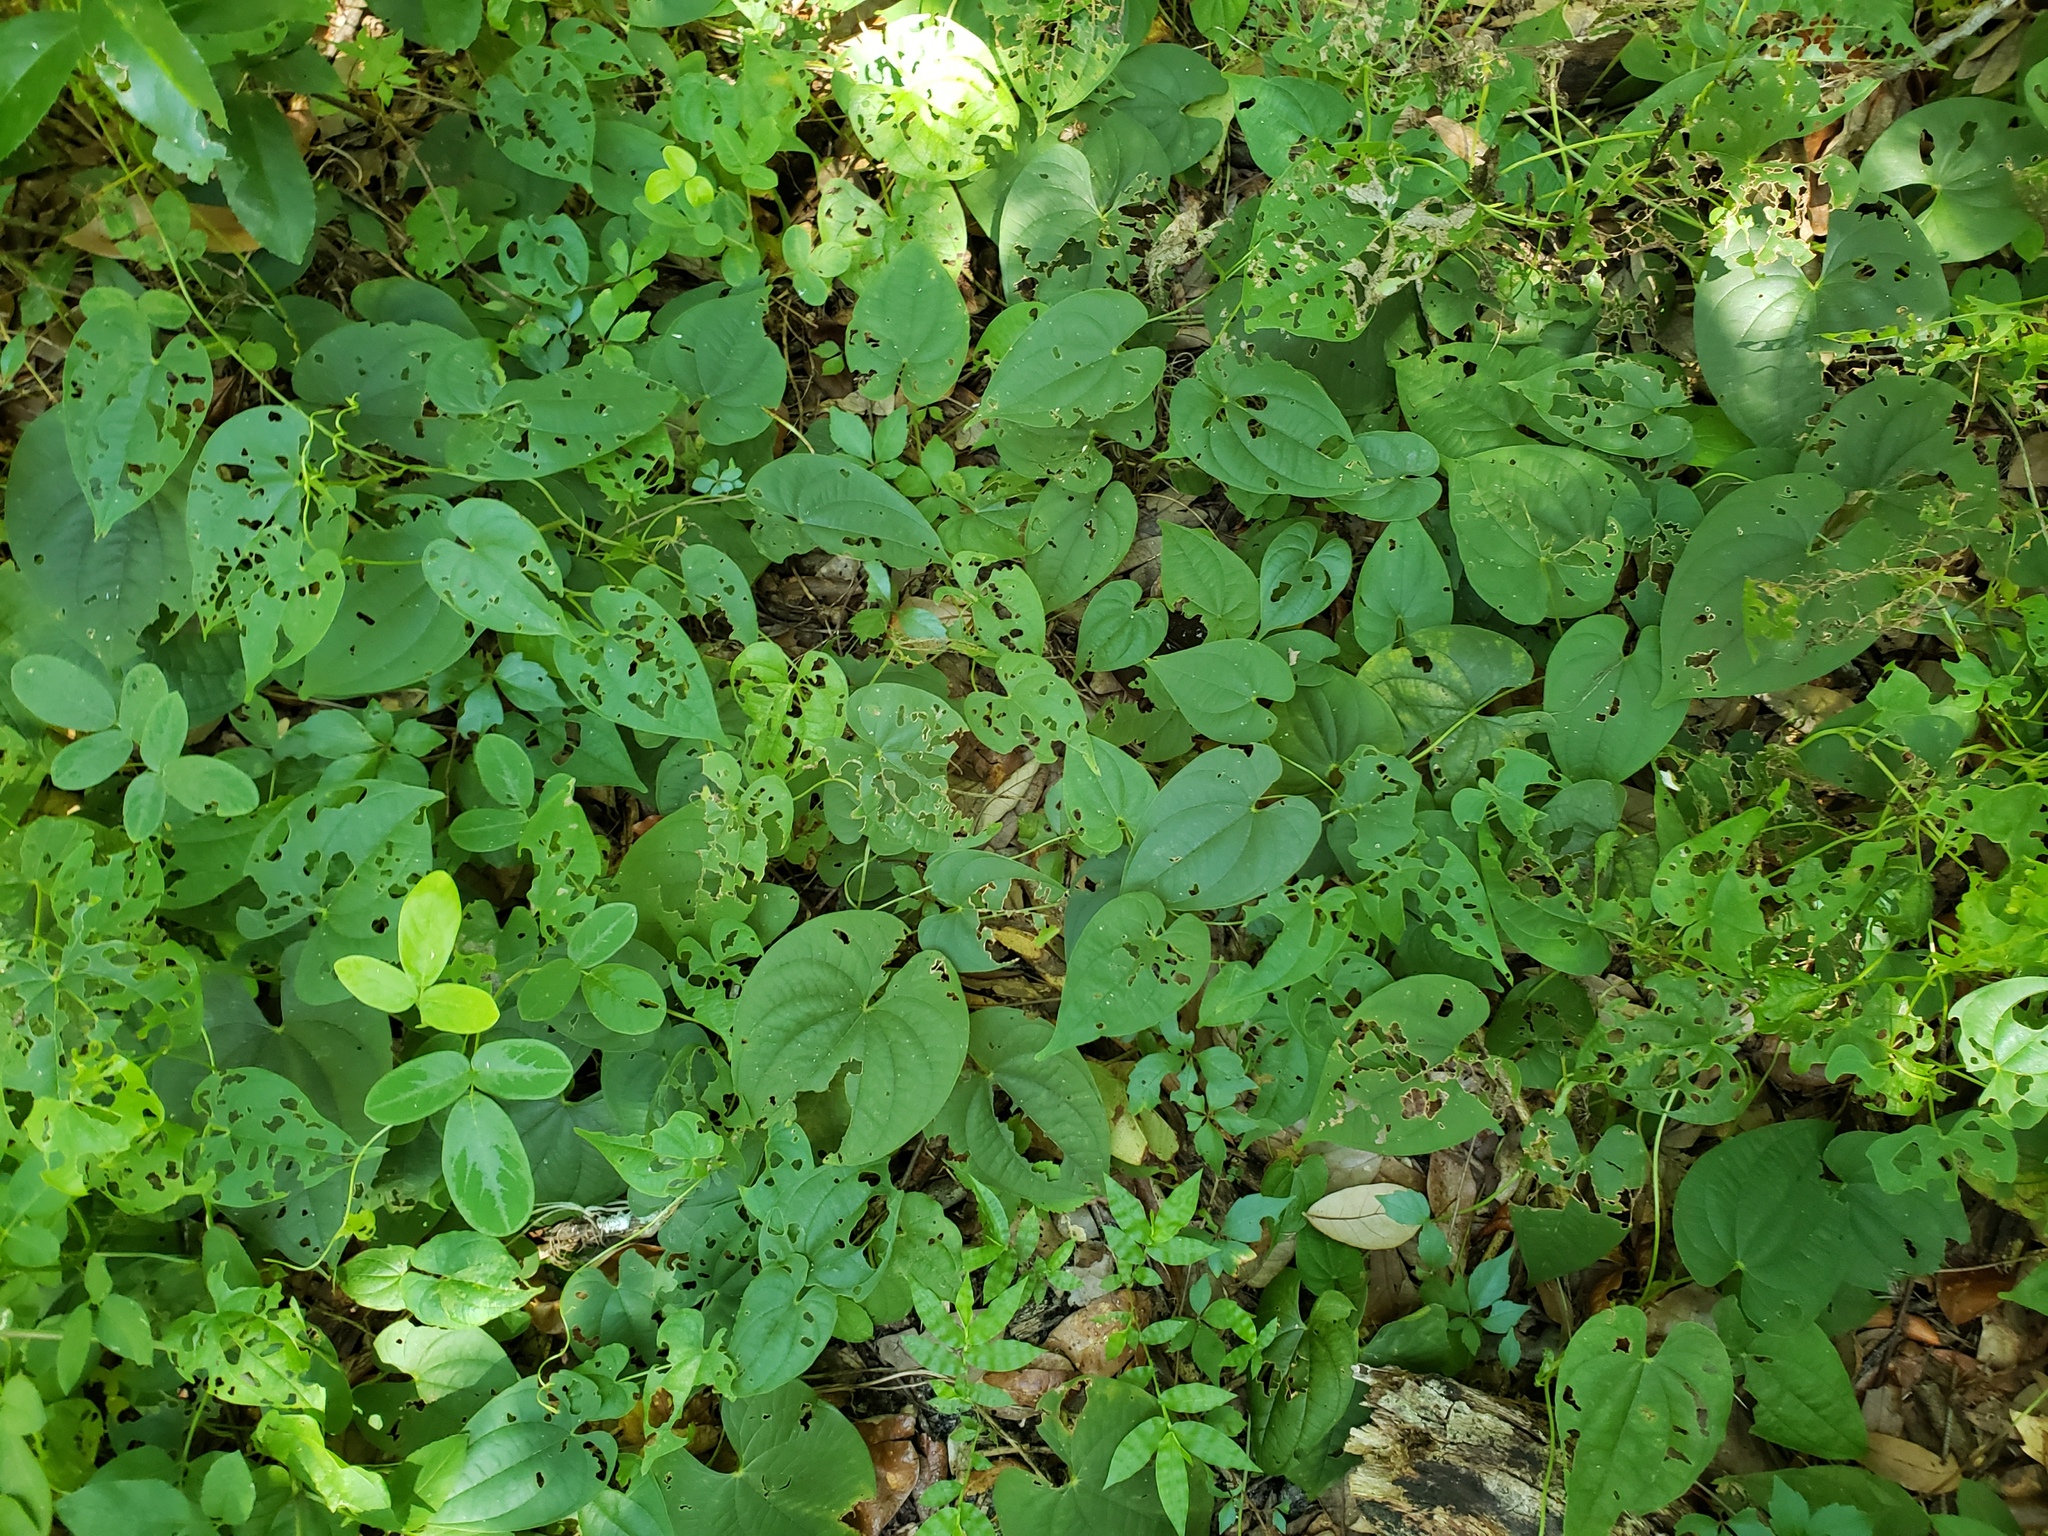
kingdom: Plantae
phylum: Tracheophyta
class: Liliopsida
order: Dioscoreales
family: Dioscoreaceae
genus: Dioscorea
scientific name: Dioscorea bulbifera
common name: Air yam
